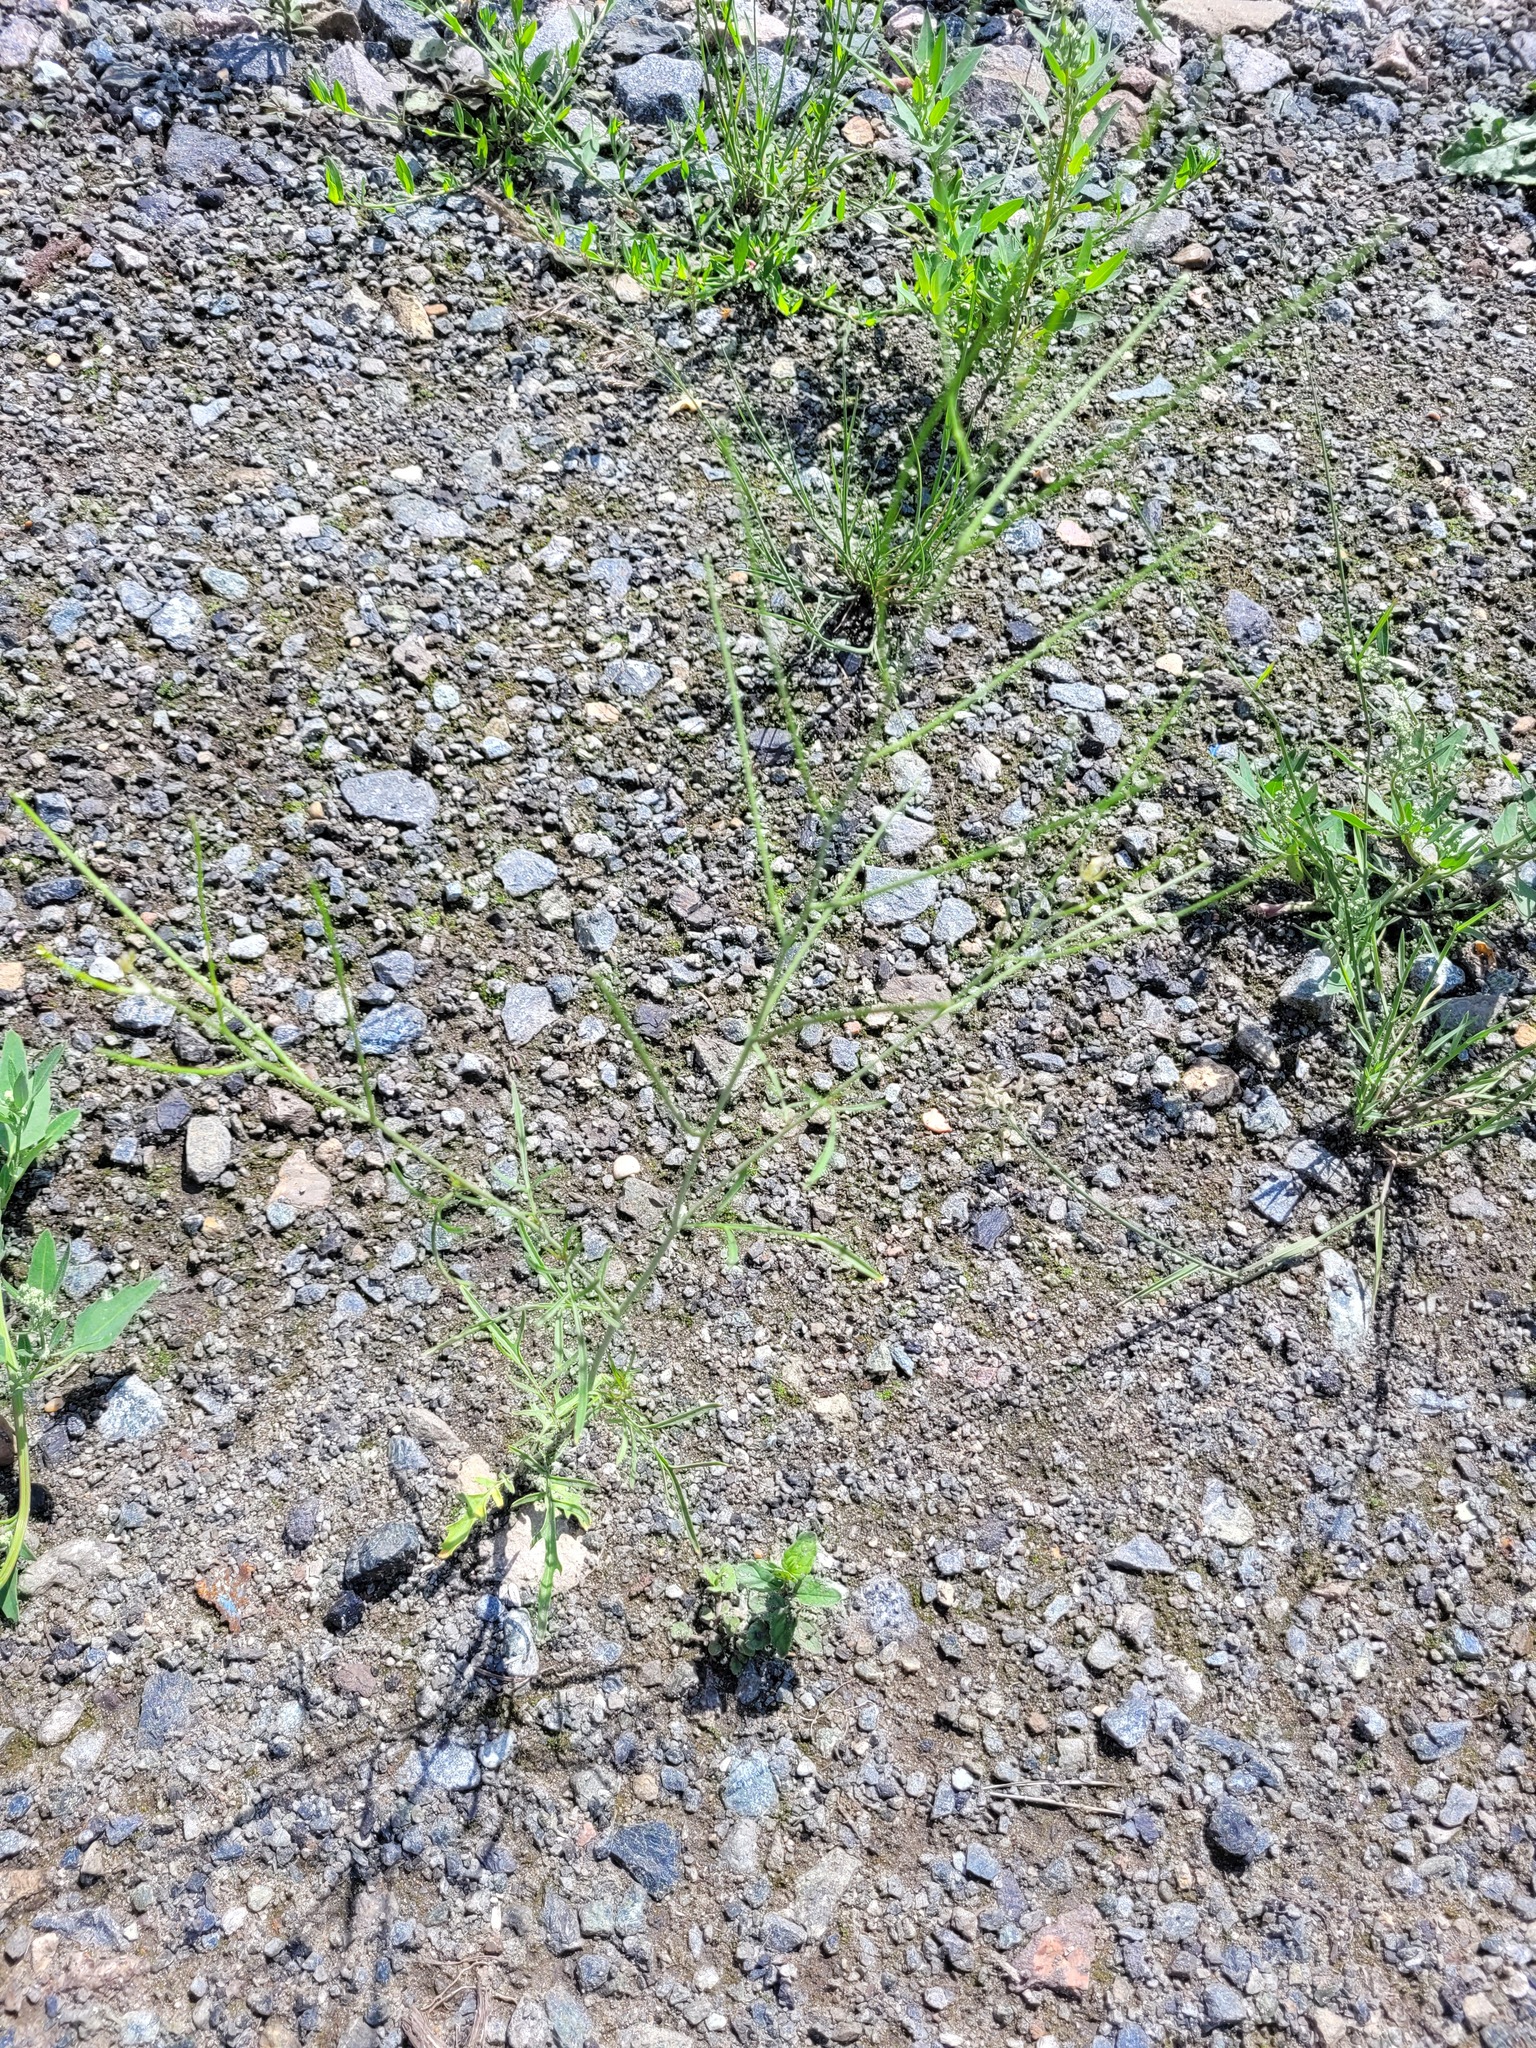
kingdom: Plantae
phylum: Tracheophyta
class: Magnoliopsida
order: Brassicales
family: Brassicaceae
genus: Sisymbrium
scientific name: Sisymbrium altissimum
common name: Tall rocket
